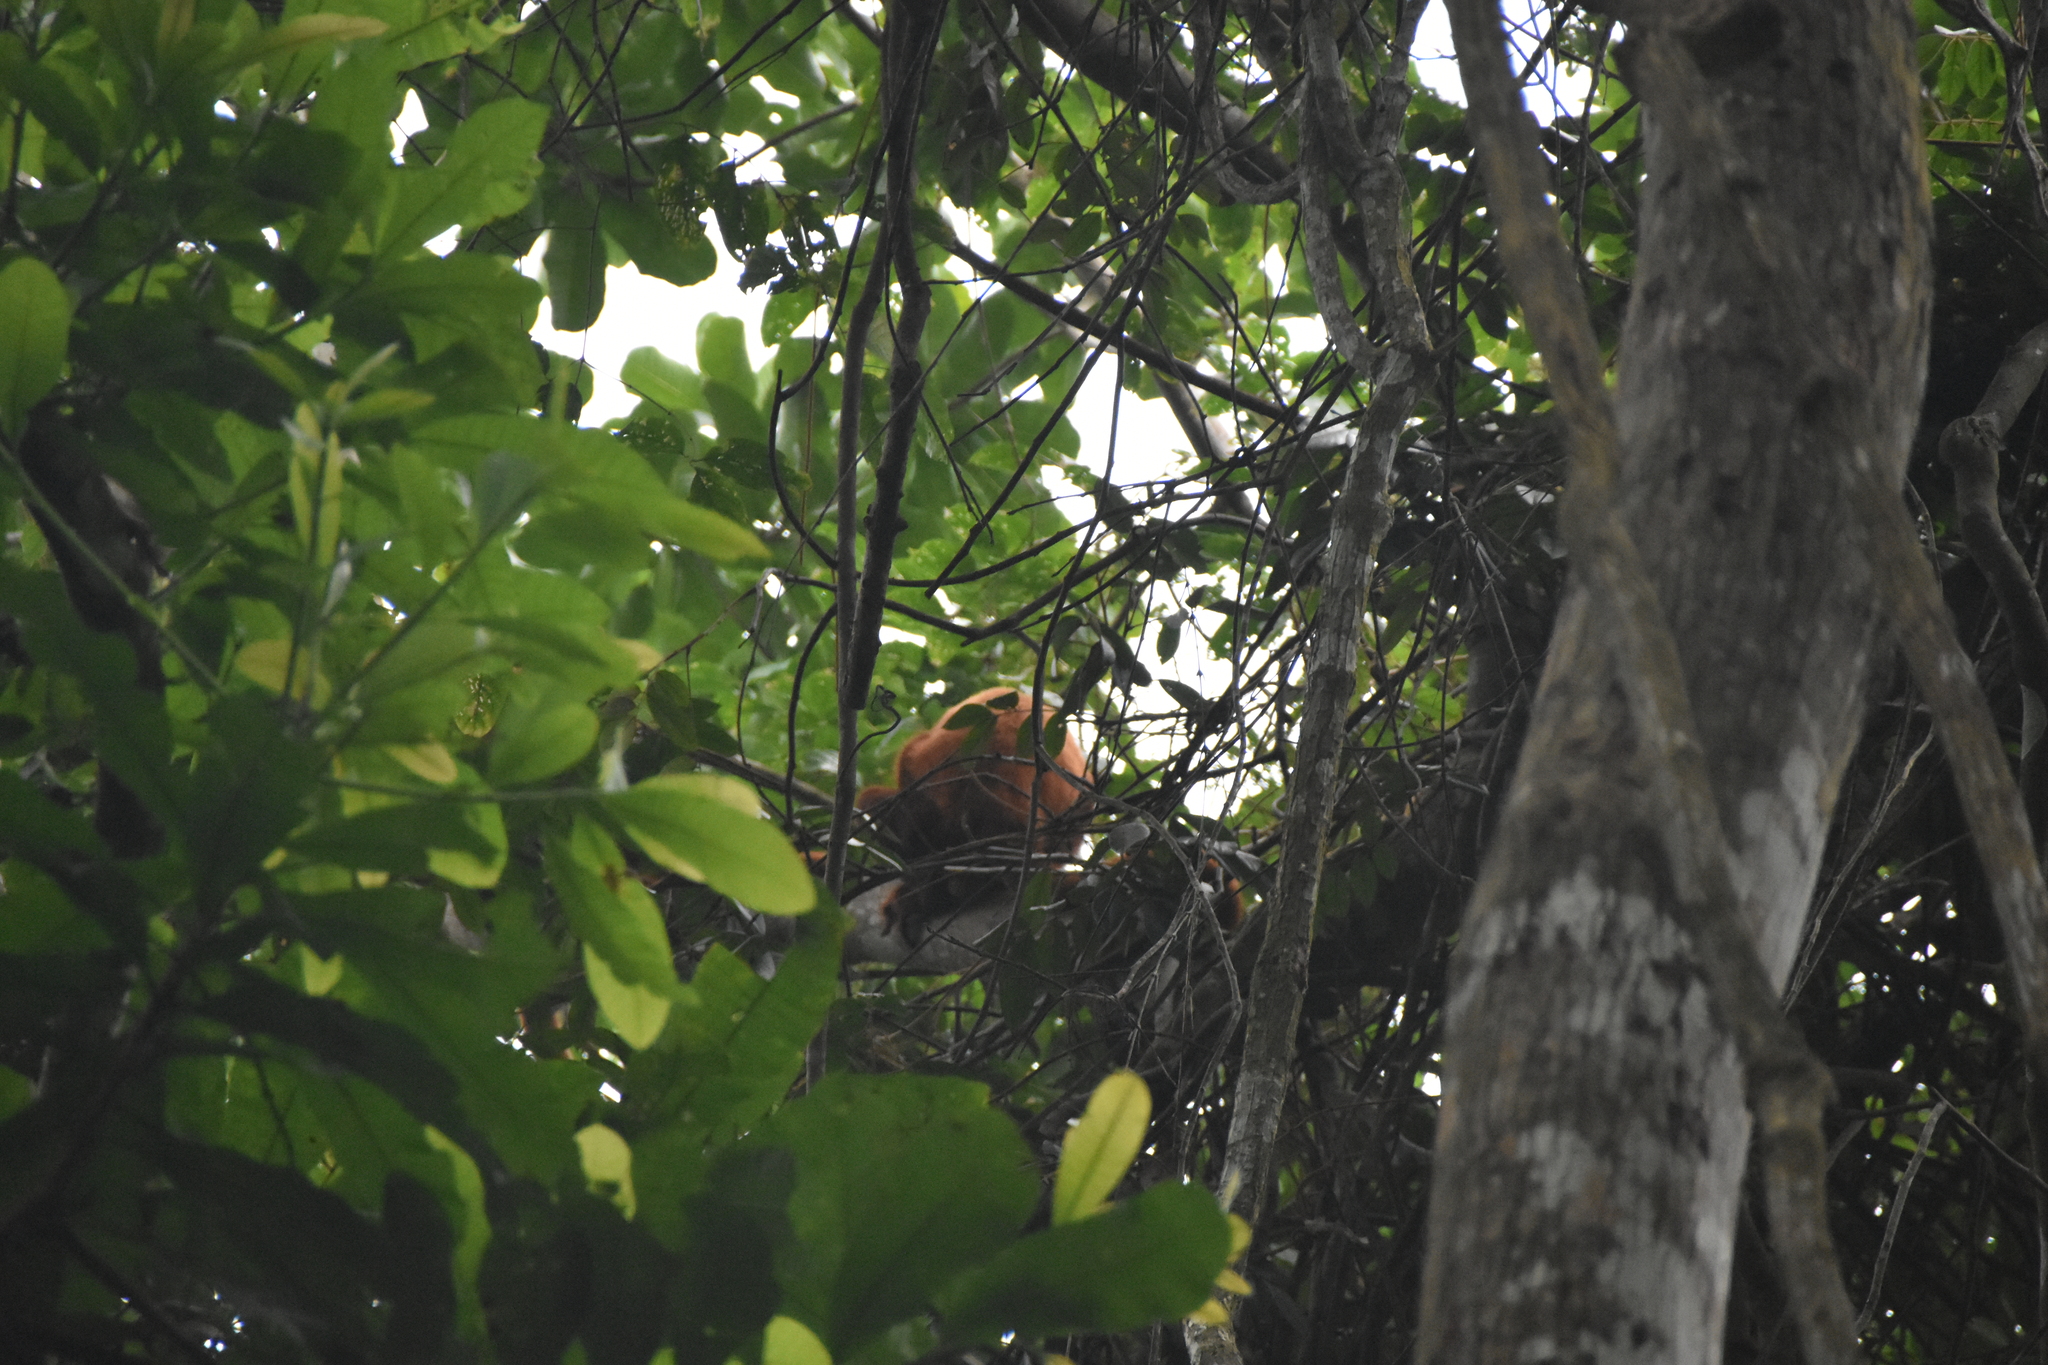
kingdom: Animalia
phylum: Chordata
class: Mammalia
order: Primates
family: Atelidae
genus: Alouatta
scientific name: Alouatta seniculus
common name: Venezuelan red howler
